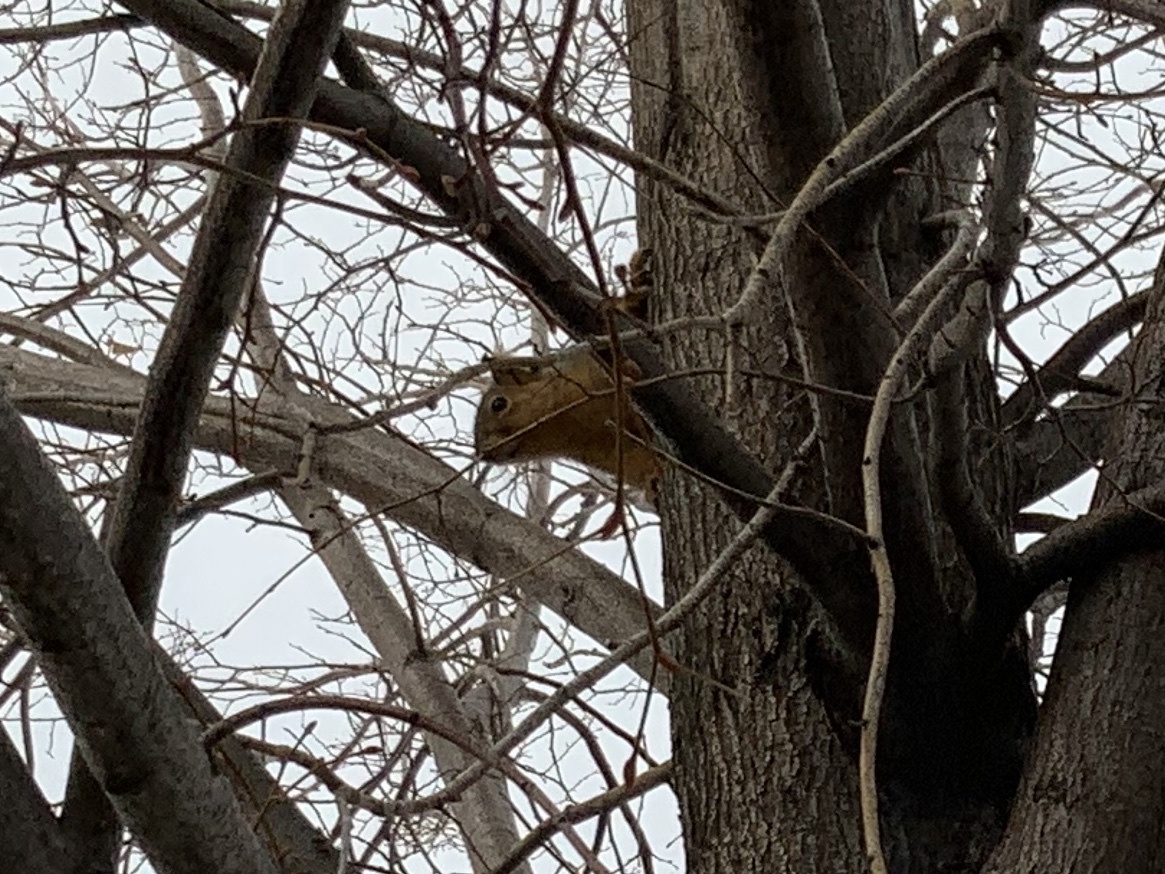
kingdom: Animalia
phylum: Chordata
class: Mammalia
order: Rodentia
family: Sciuridae
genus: Sciurus
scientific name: Sciurus niger
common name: Fox squirrel
